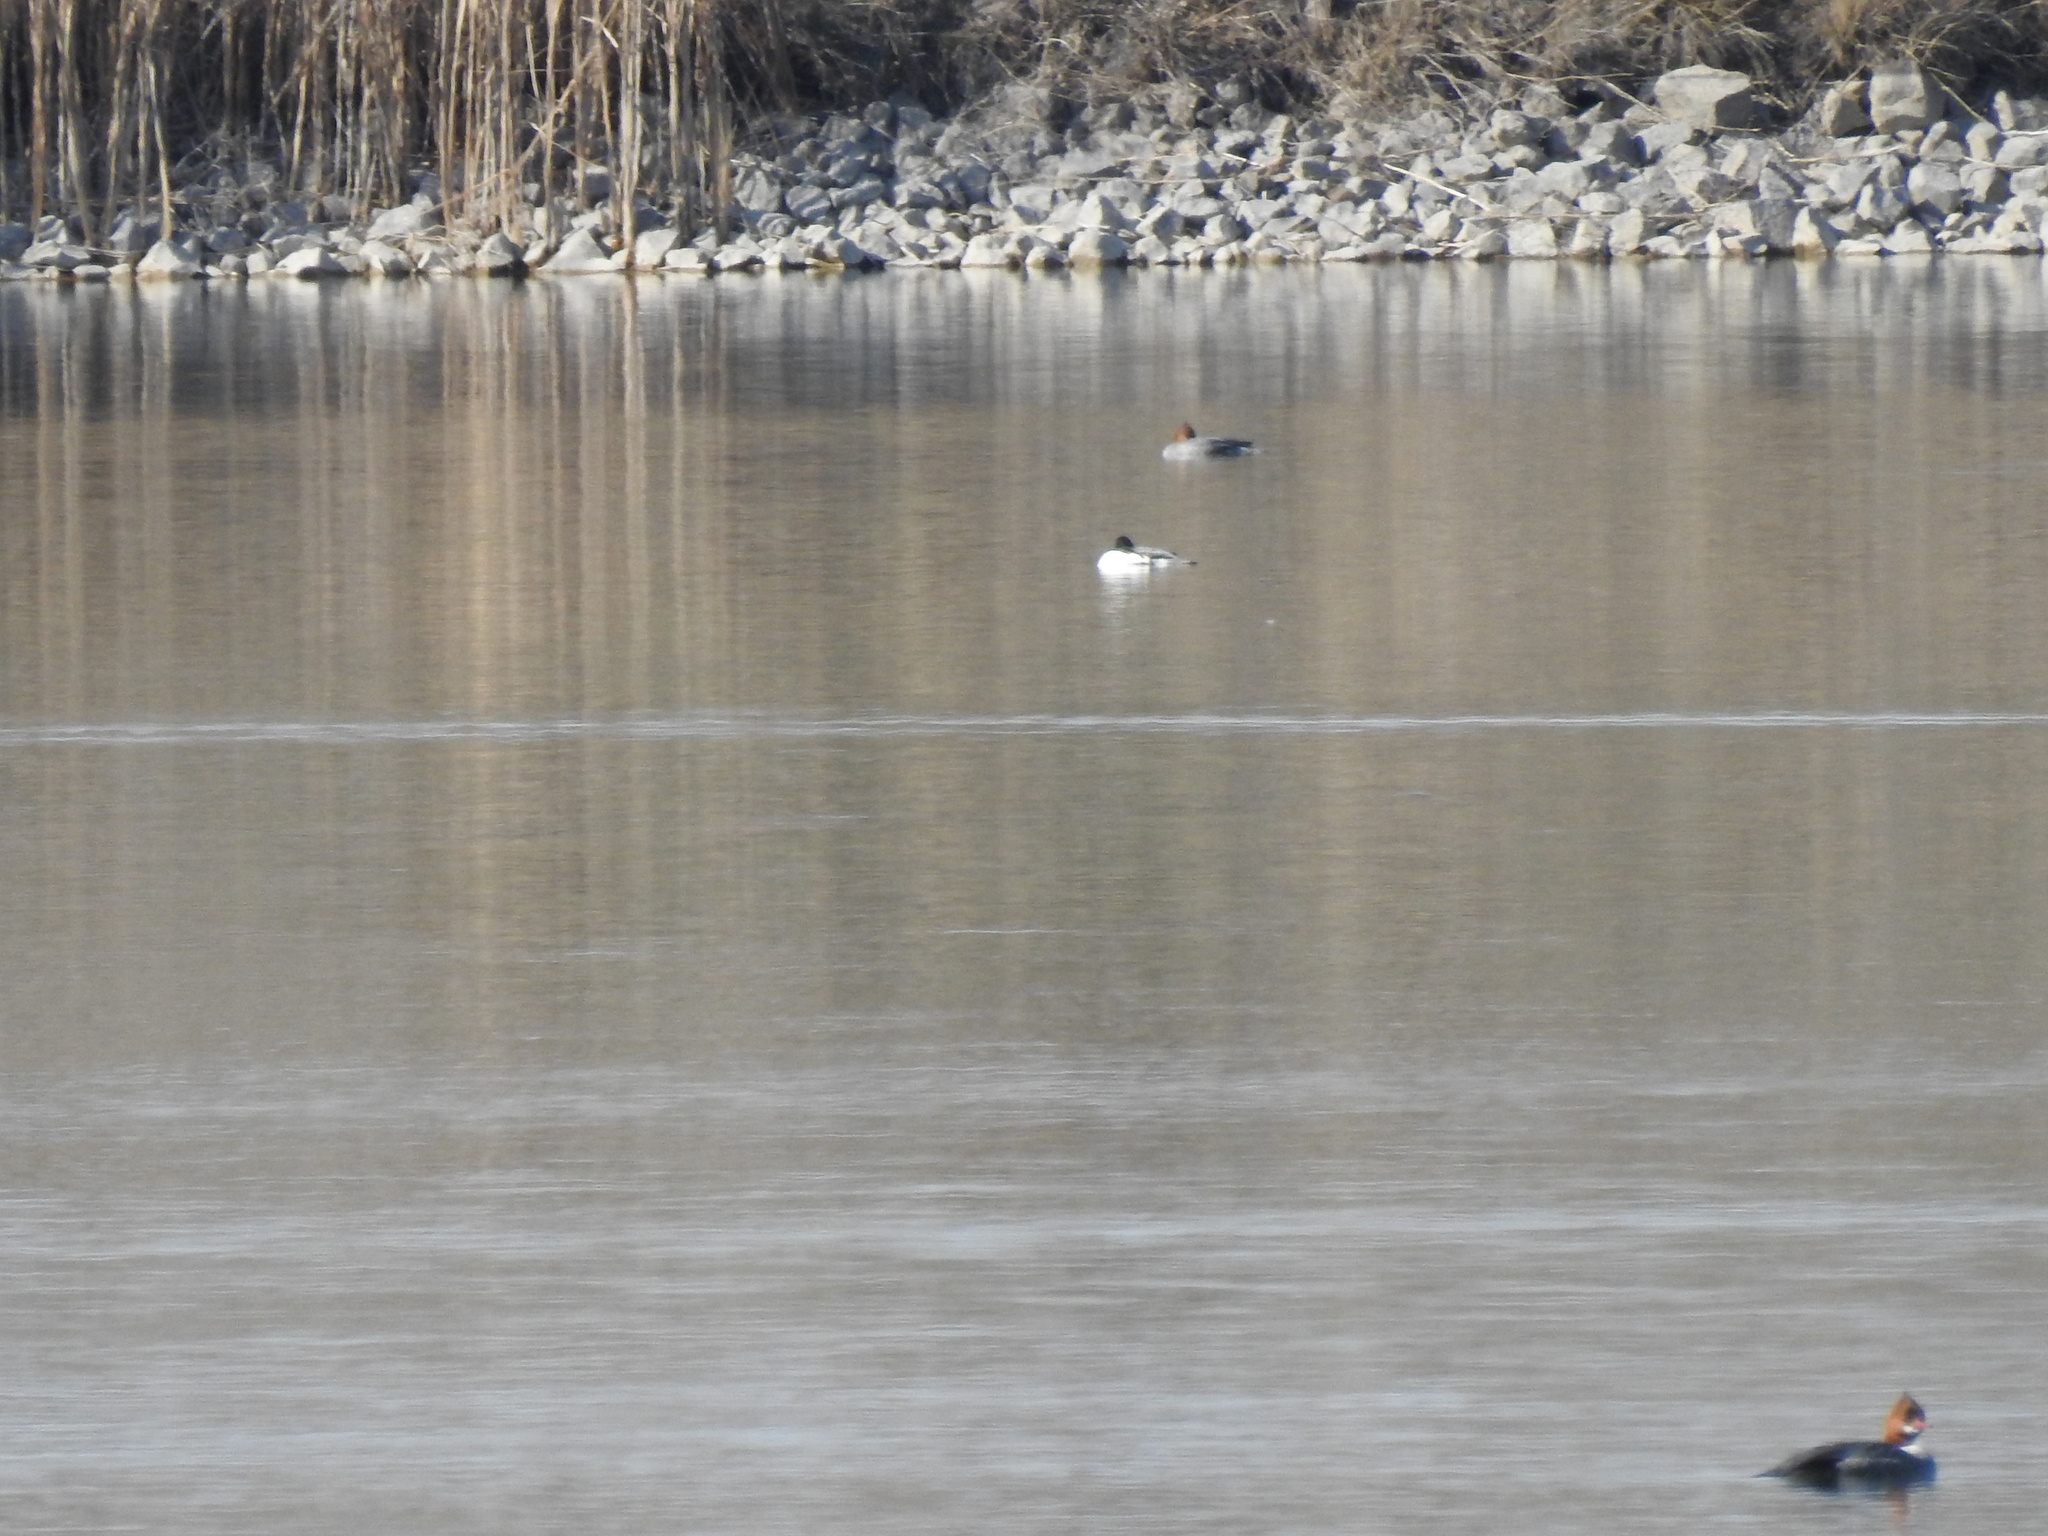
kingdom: Animalia
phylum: Chordata
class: Aves
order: Anseriformes
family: Anatidae
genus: Mergus
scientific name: Mergus merganser
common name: Common merganser
